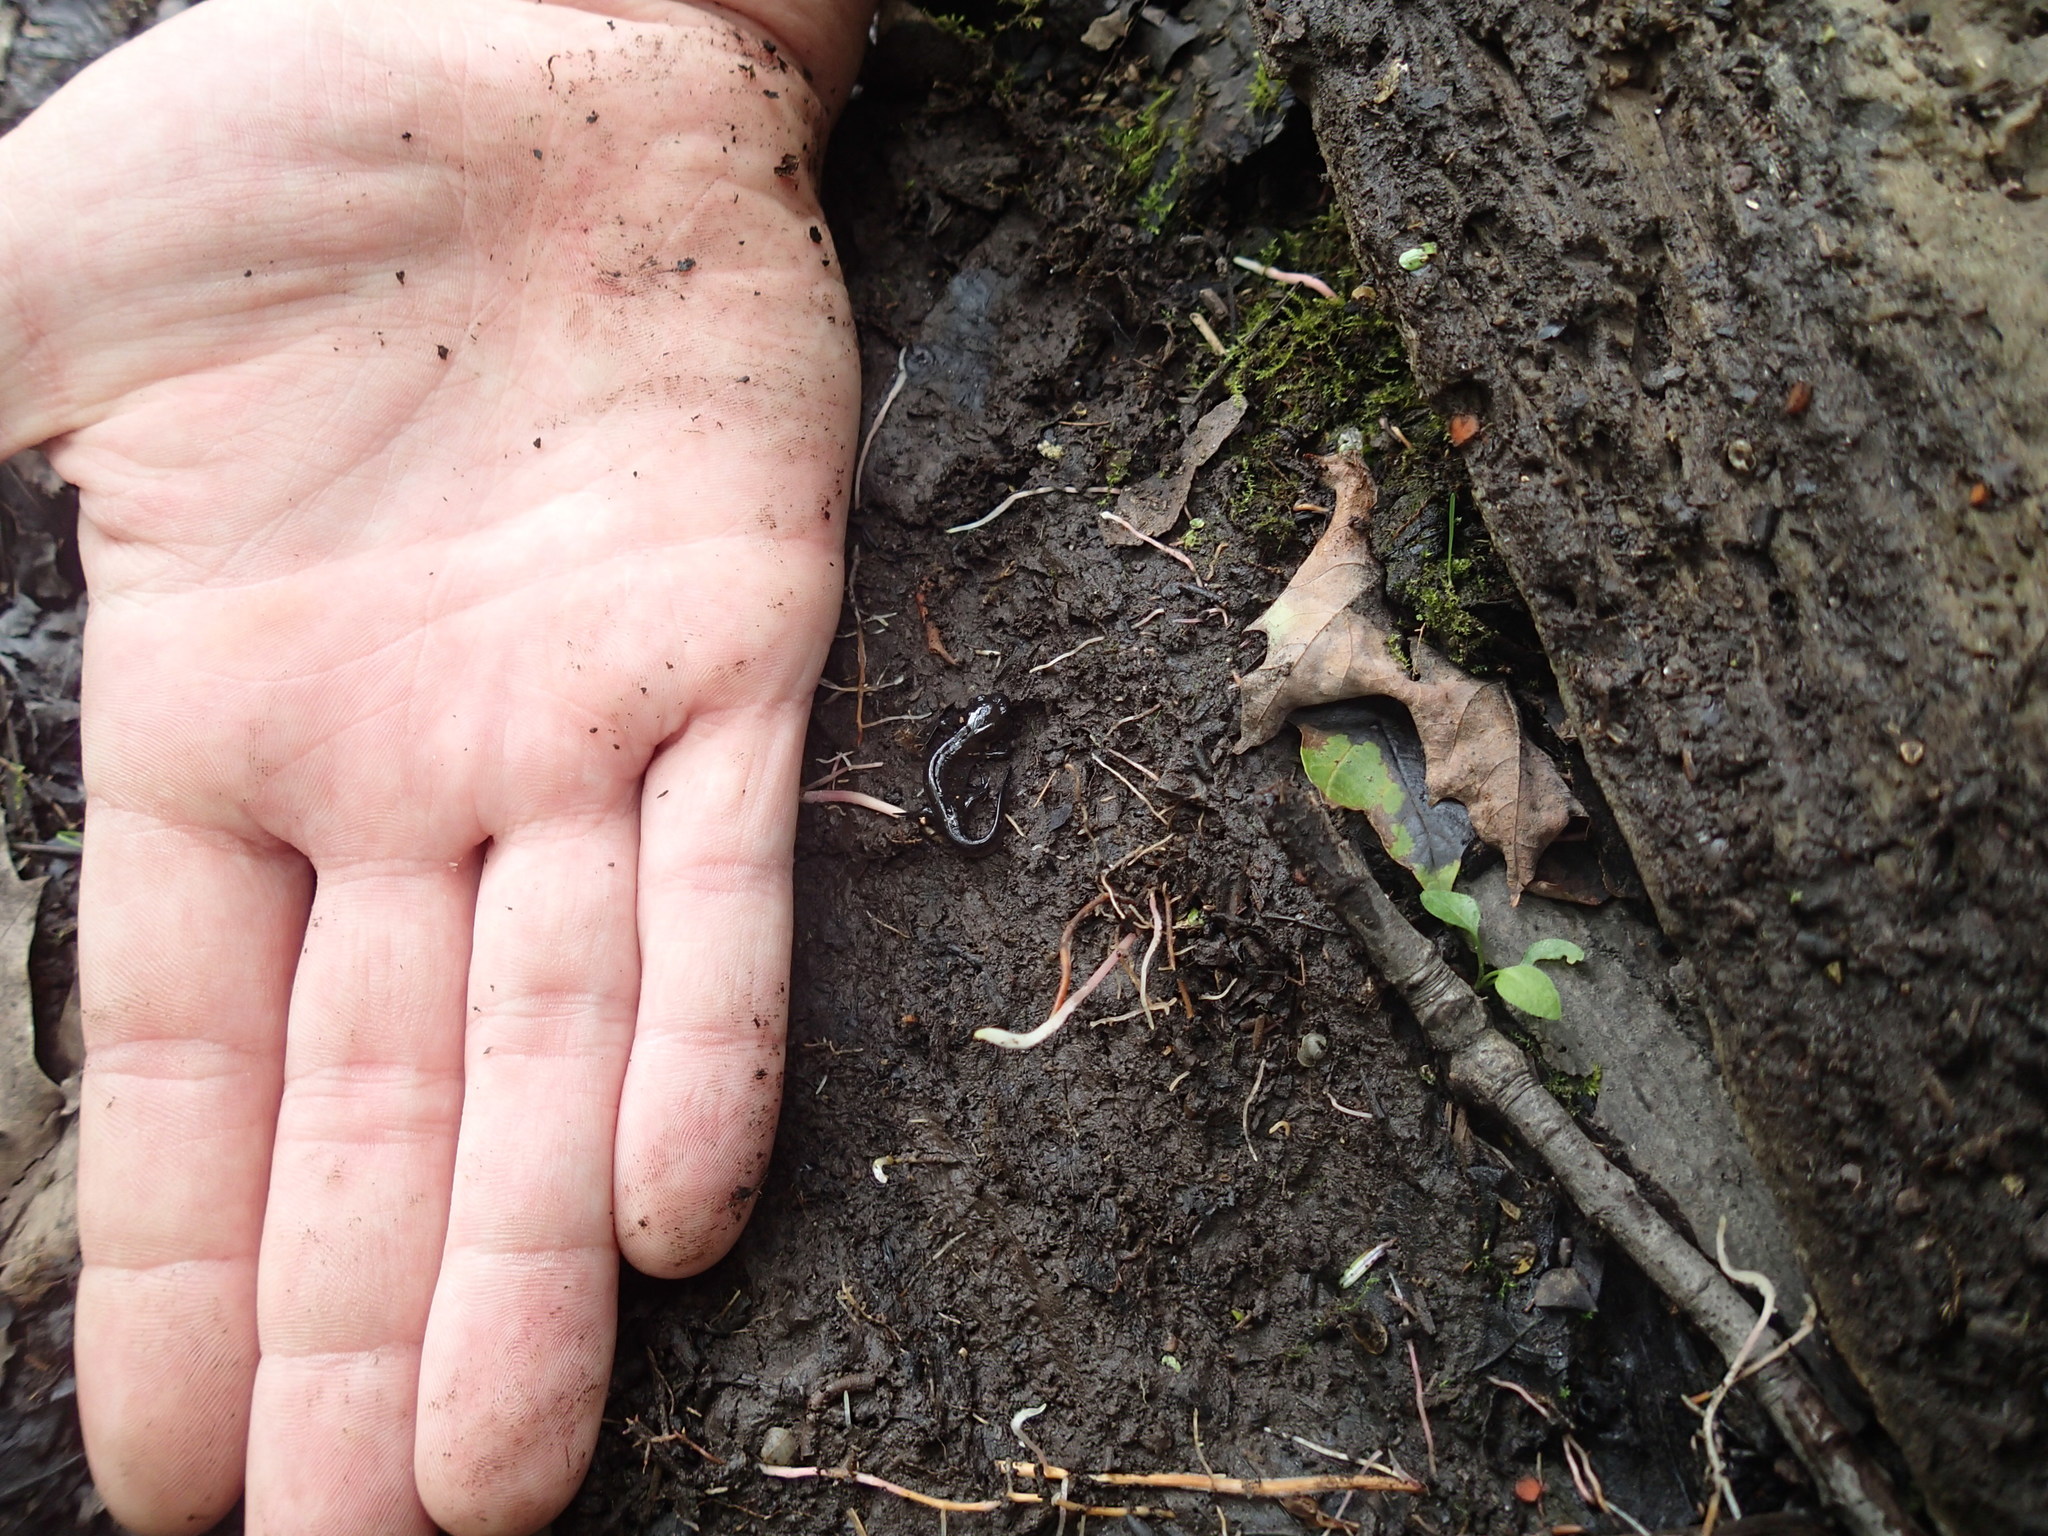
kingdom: Animalia
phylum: Chordata
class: Amphibia
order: Caudata
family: Ambystomatidae
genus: Ambystoma
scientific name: Ambystoma maculatum
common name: Spotted salamander
